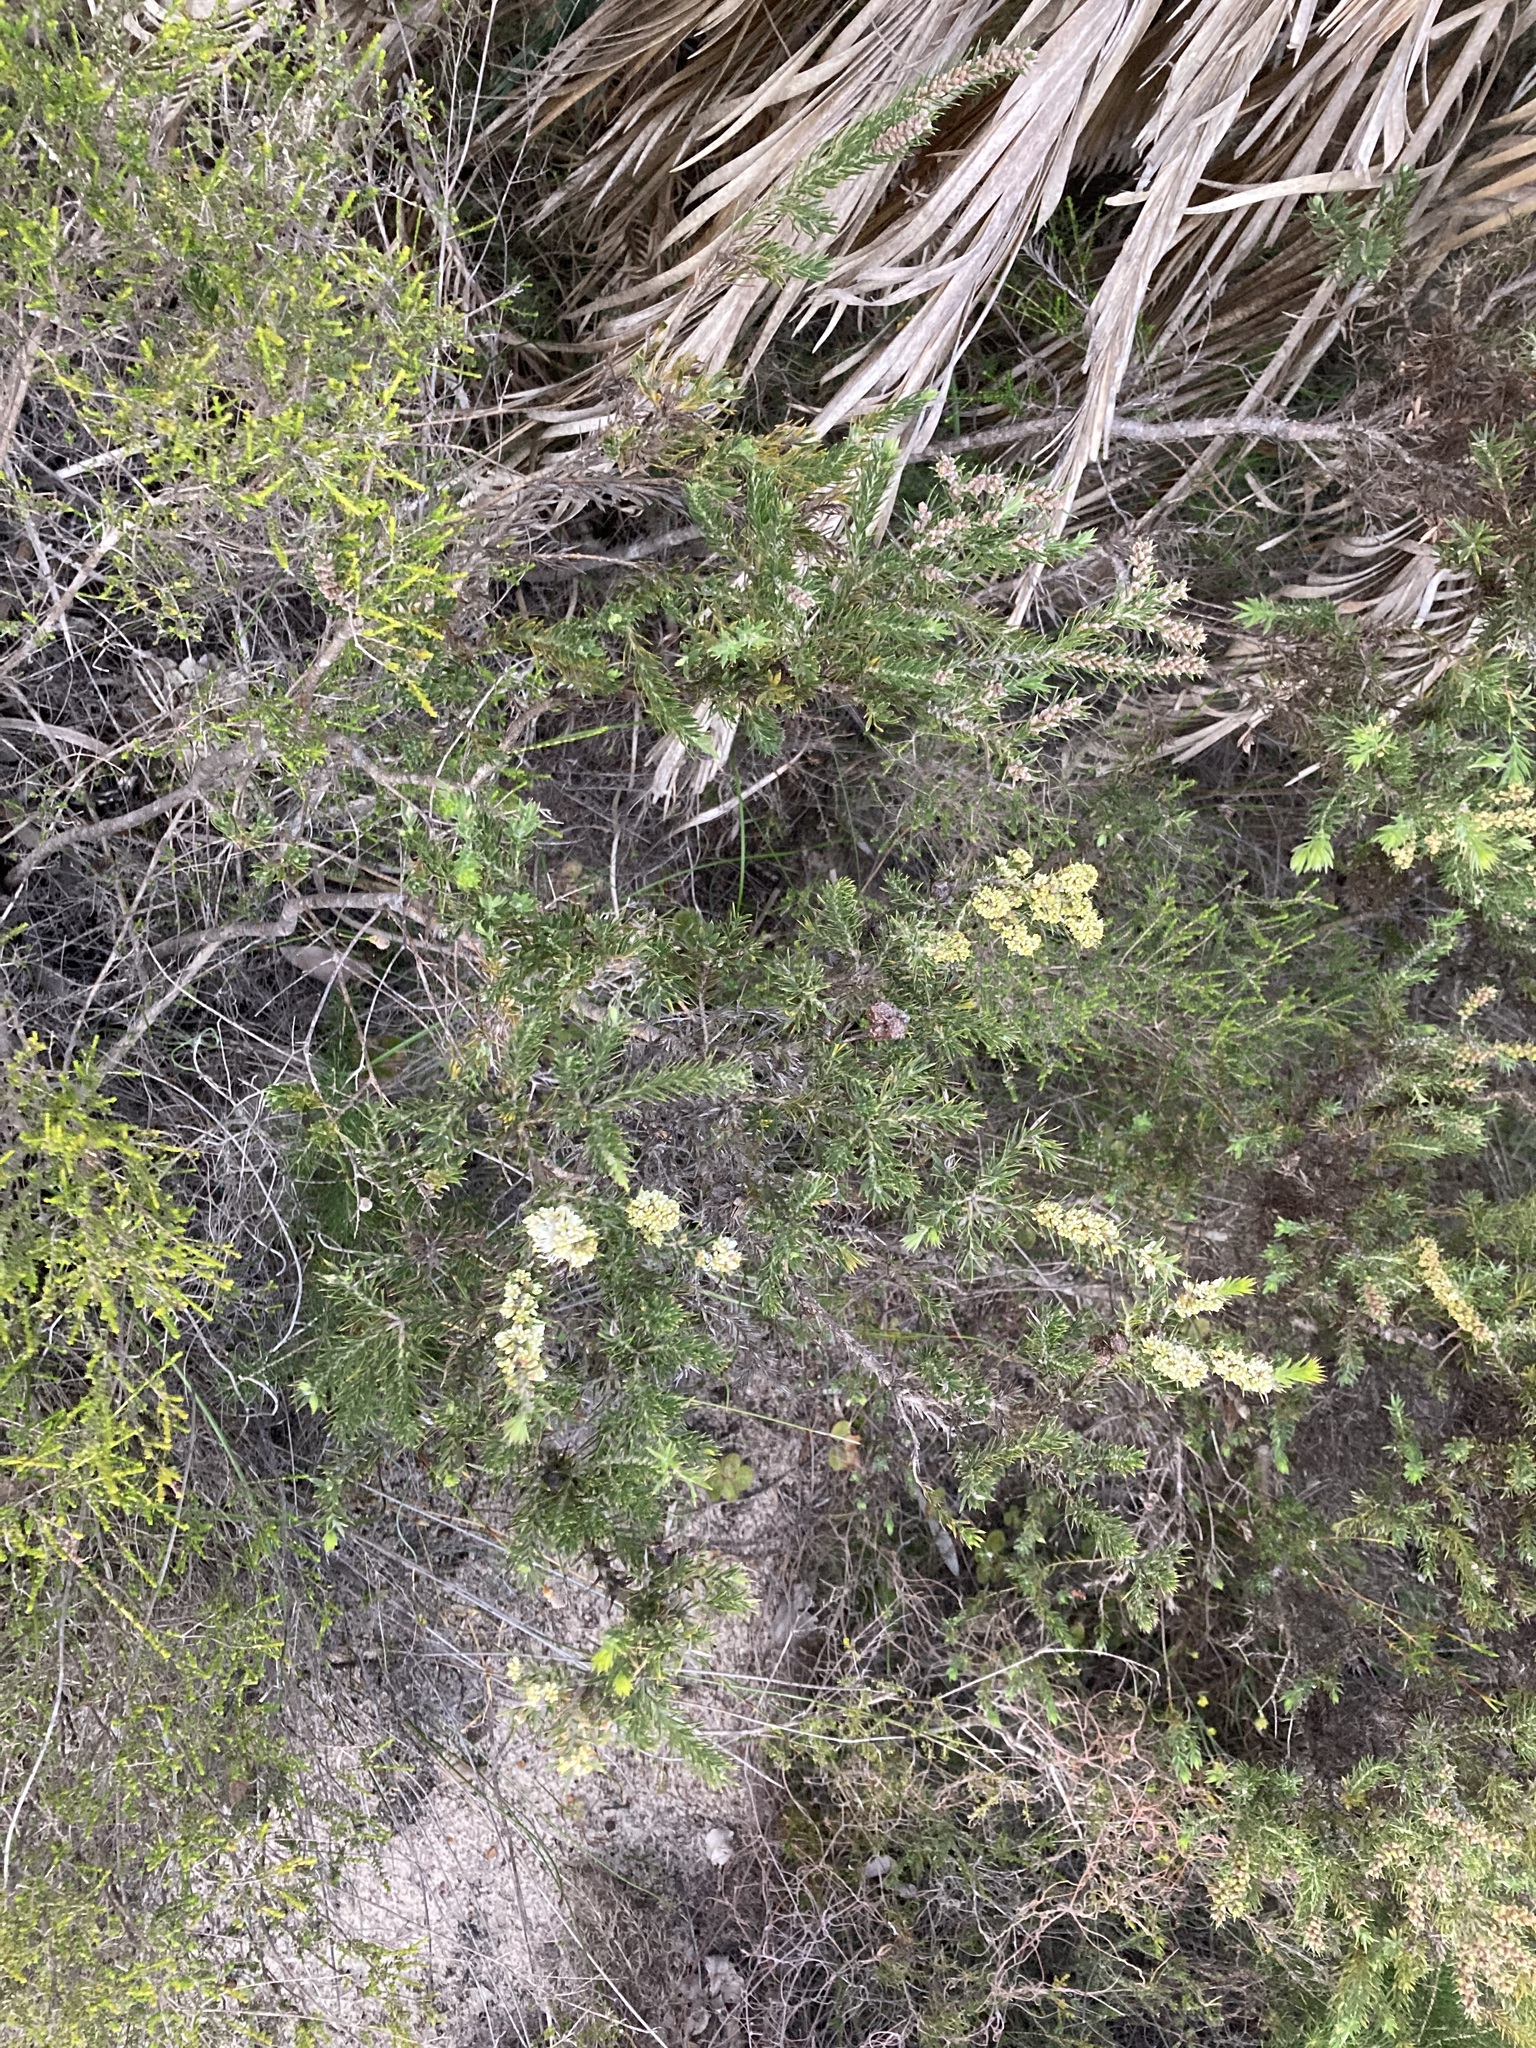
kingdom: Plantae
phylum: Tracheophyta
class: Magnoliopsida
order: Proteales
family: Proteaceae
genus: Hakea
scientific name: Hakea costata
